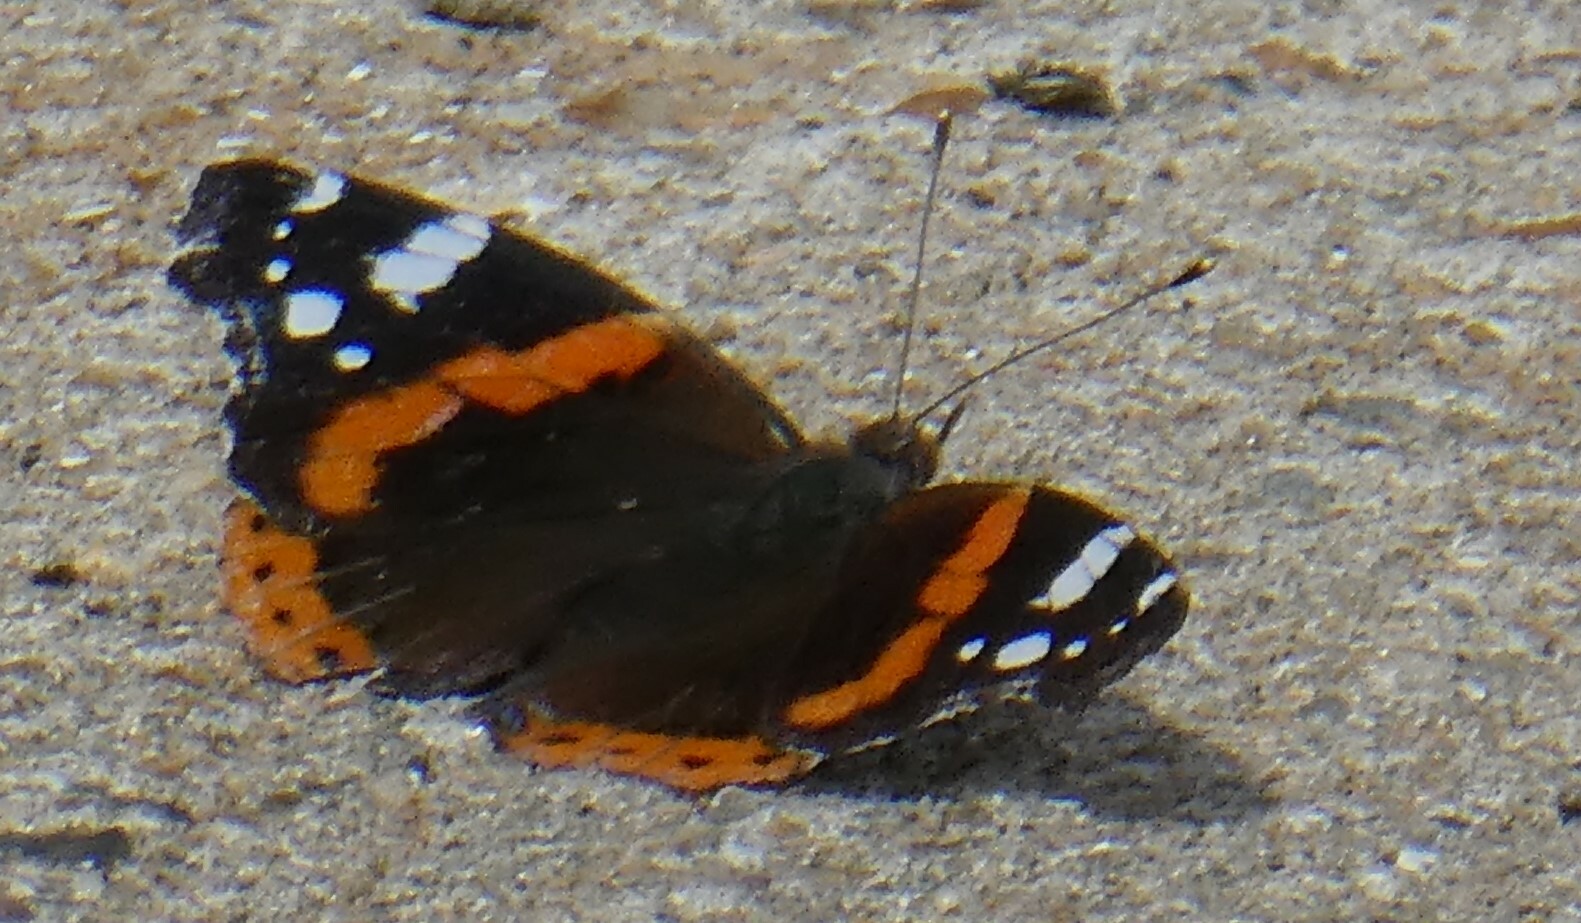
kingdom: Animalia
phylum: Arthropoda
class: Insecta
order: Lepidoptera
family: Nymphalidae
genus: Vanessa
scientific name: Vanessa atalanta
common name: Red admiral
